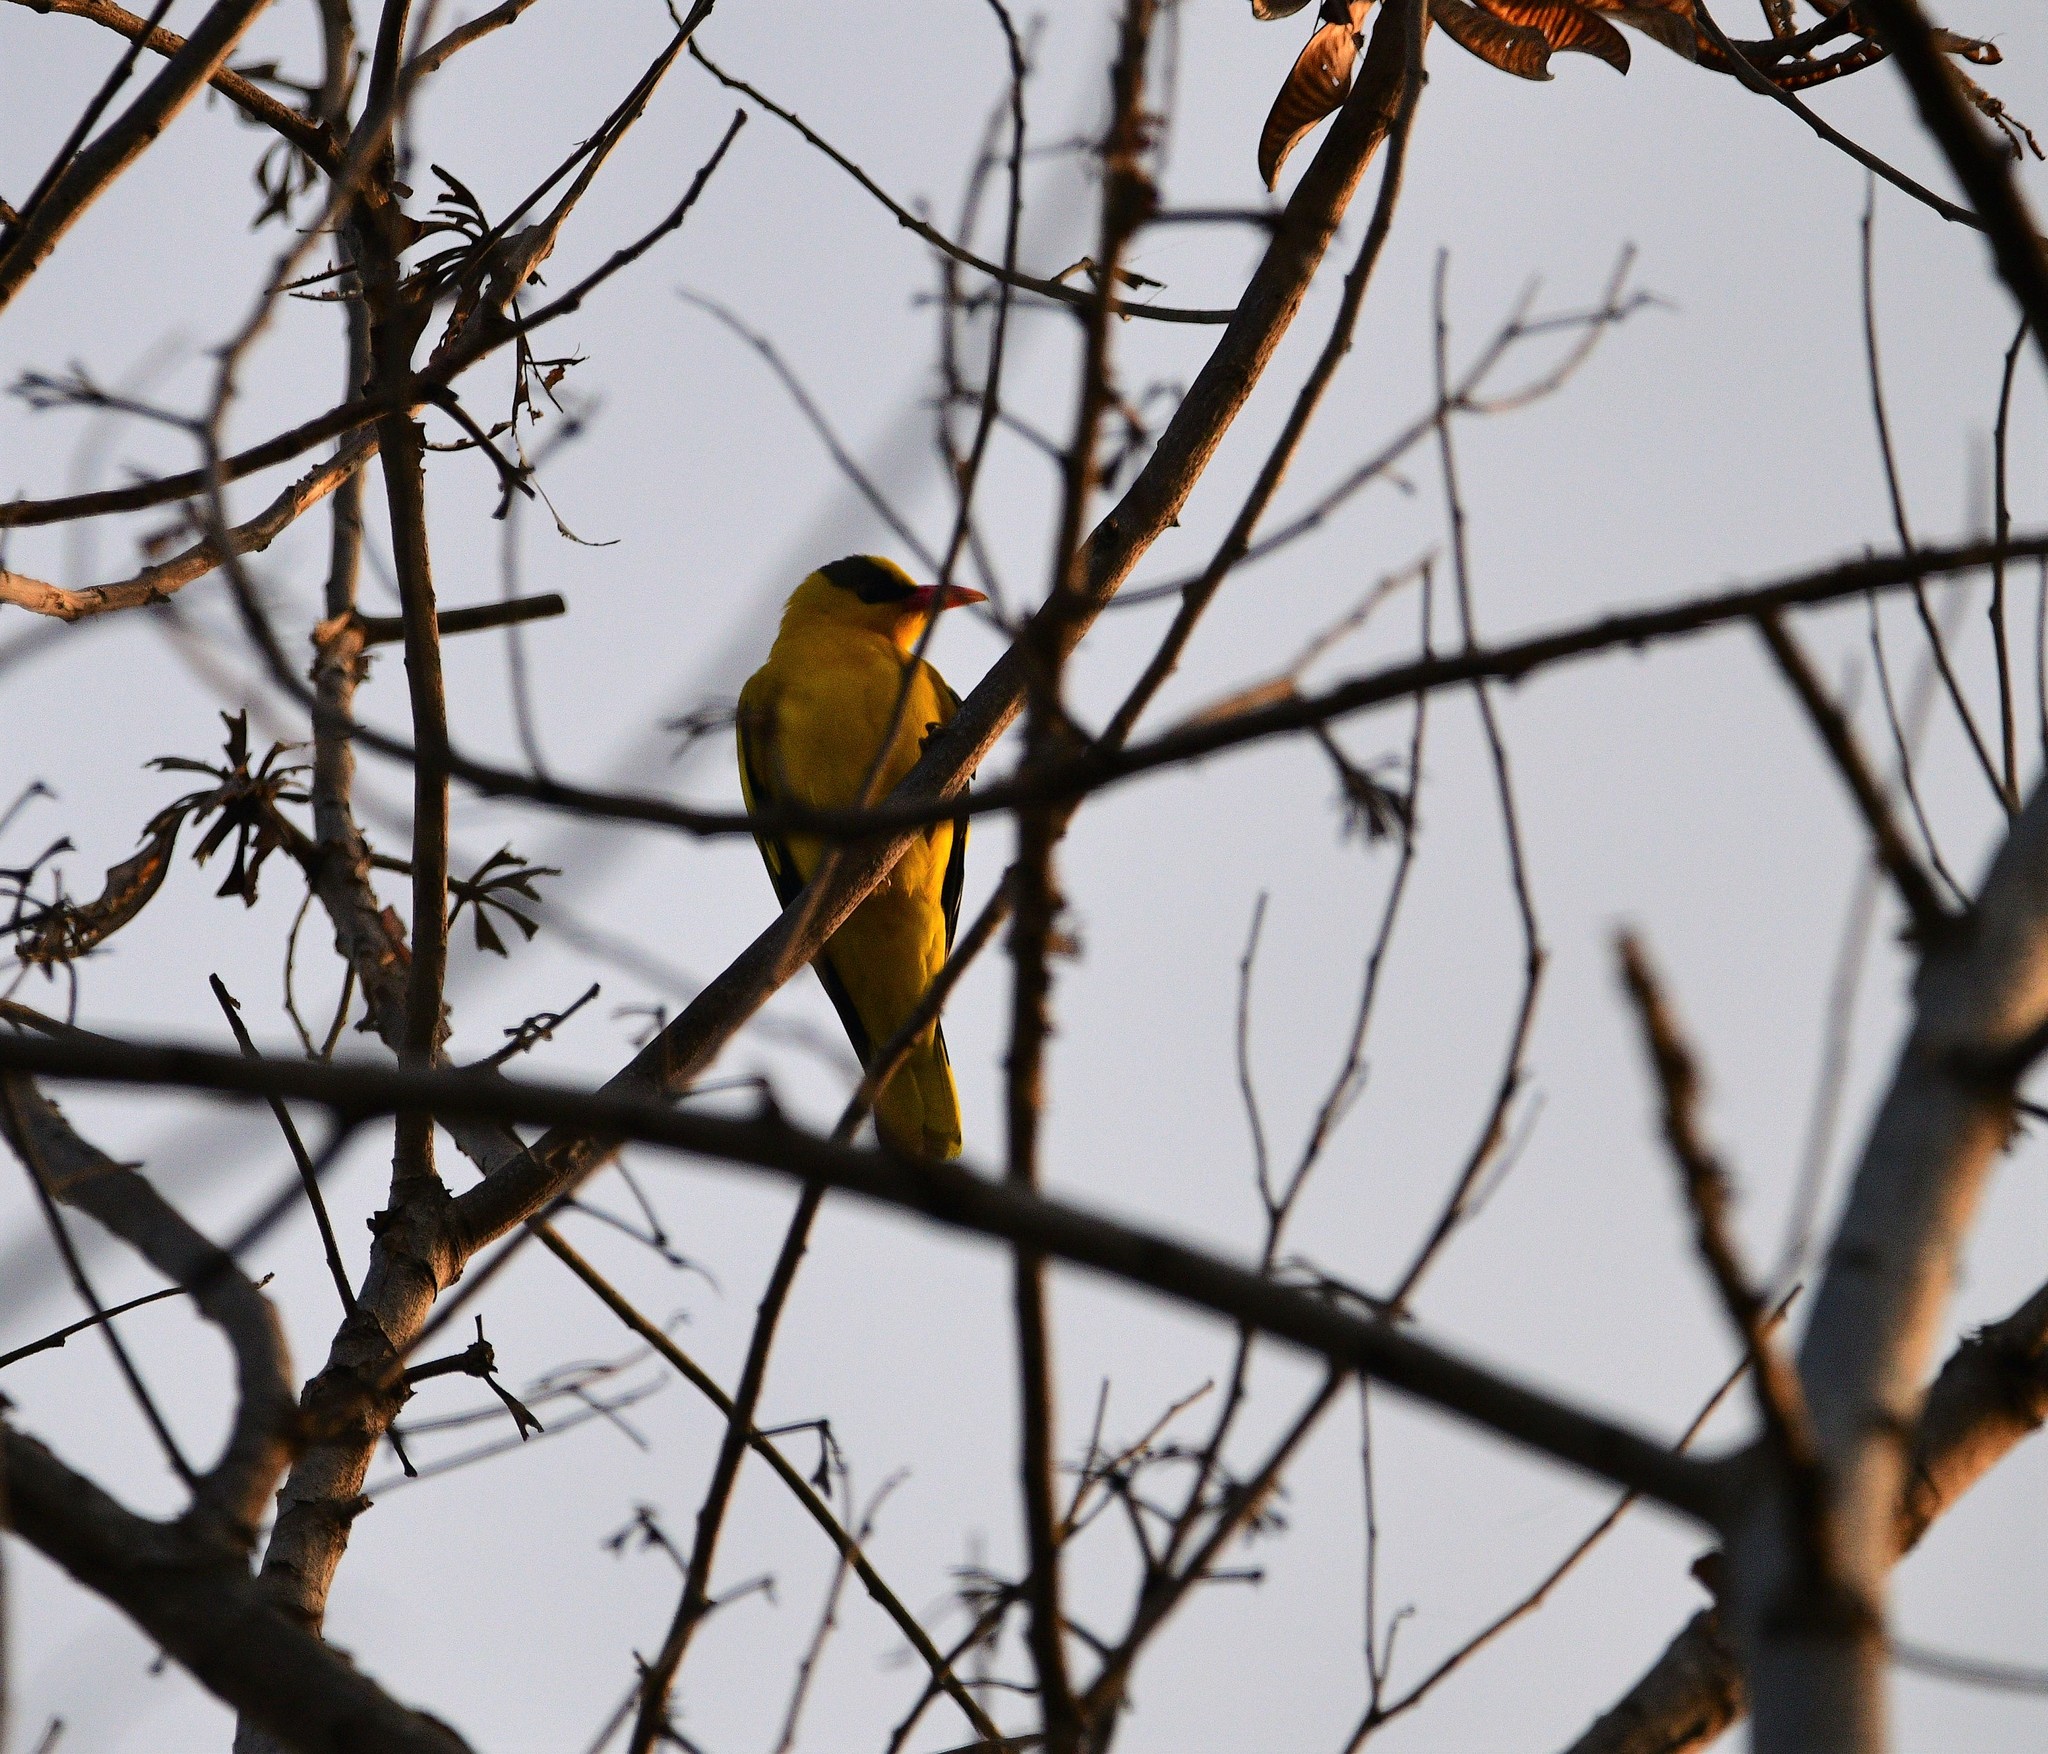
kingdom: Animalia
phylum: Chordata
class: Aves
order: Passeriformes
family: Oriolidae
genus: Oriolus
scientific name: Oriolus chinensis
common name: Black-naped oriole
